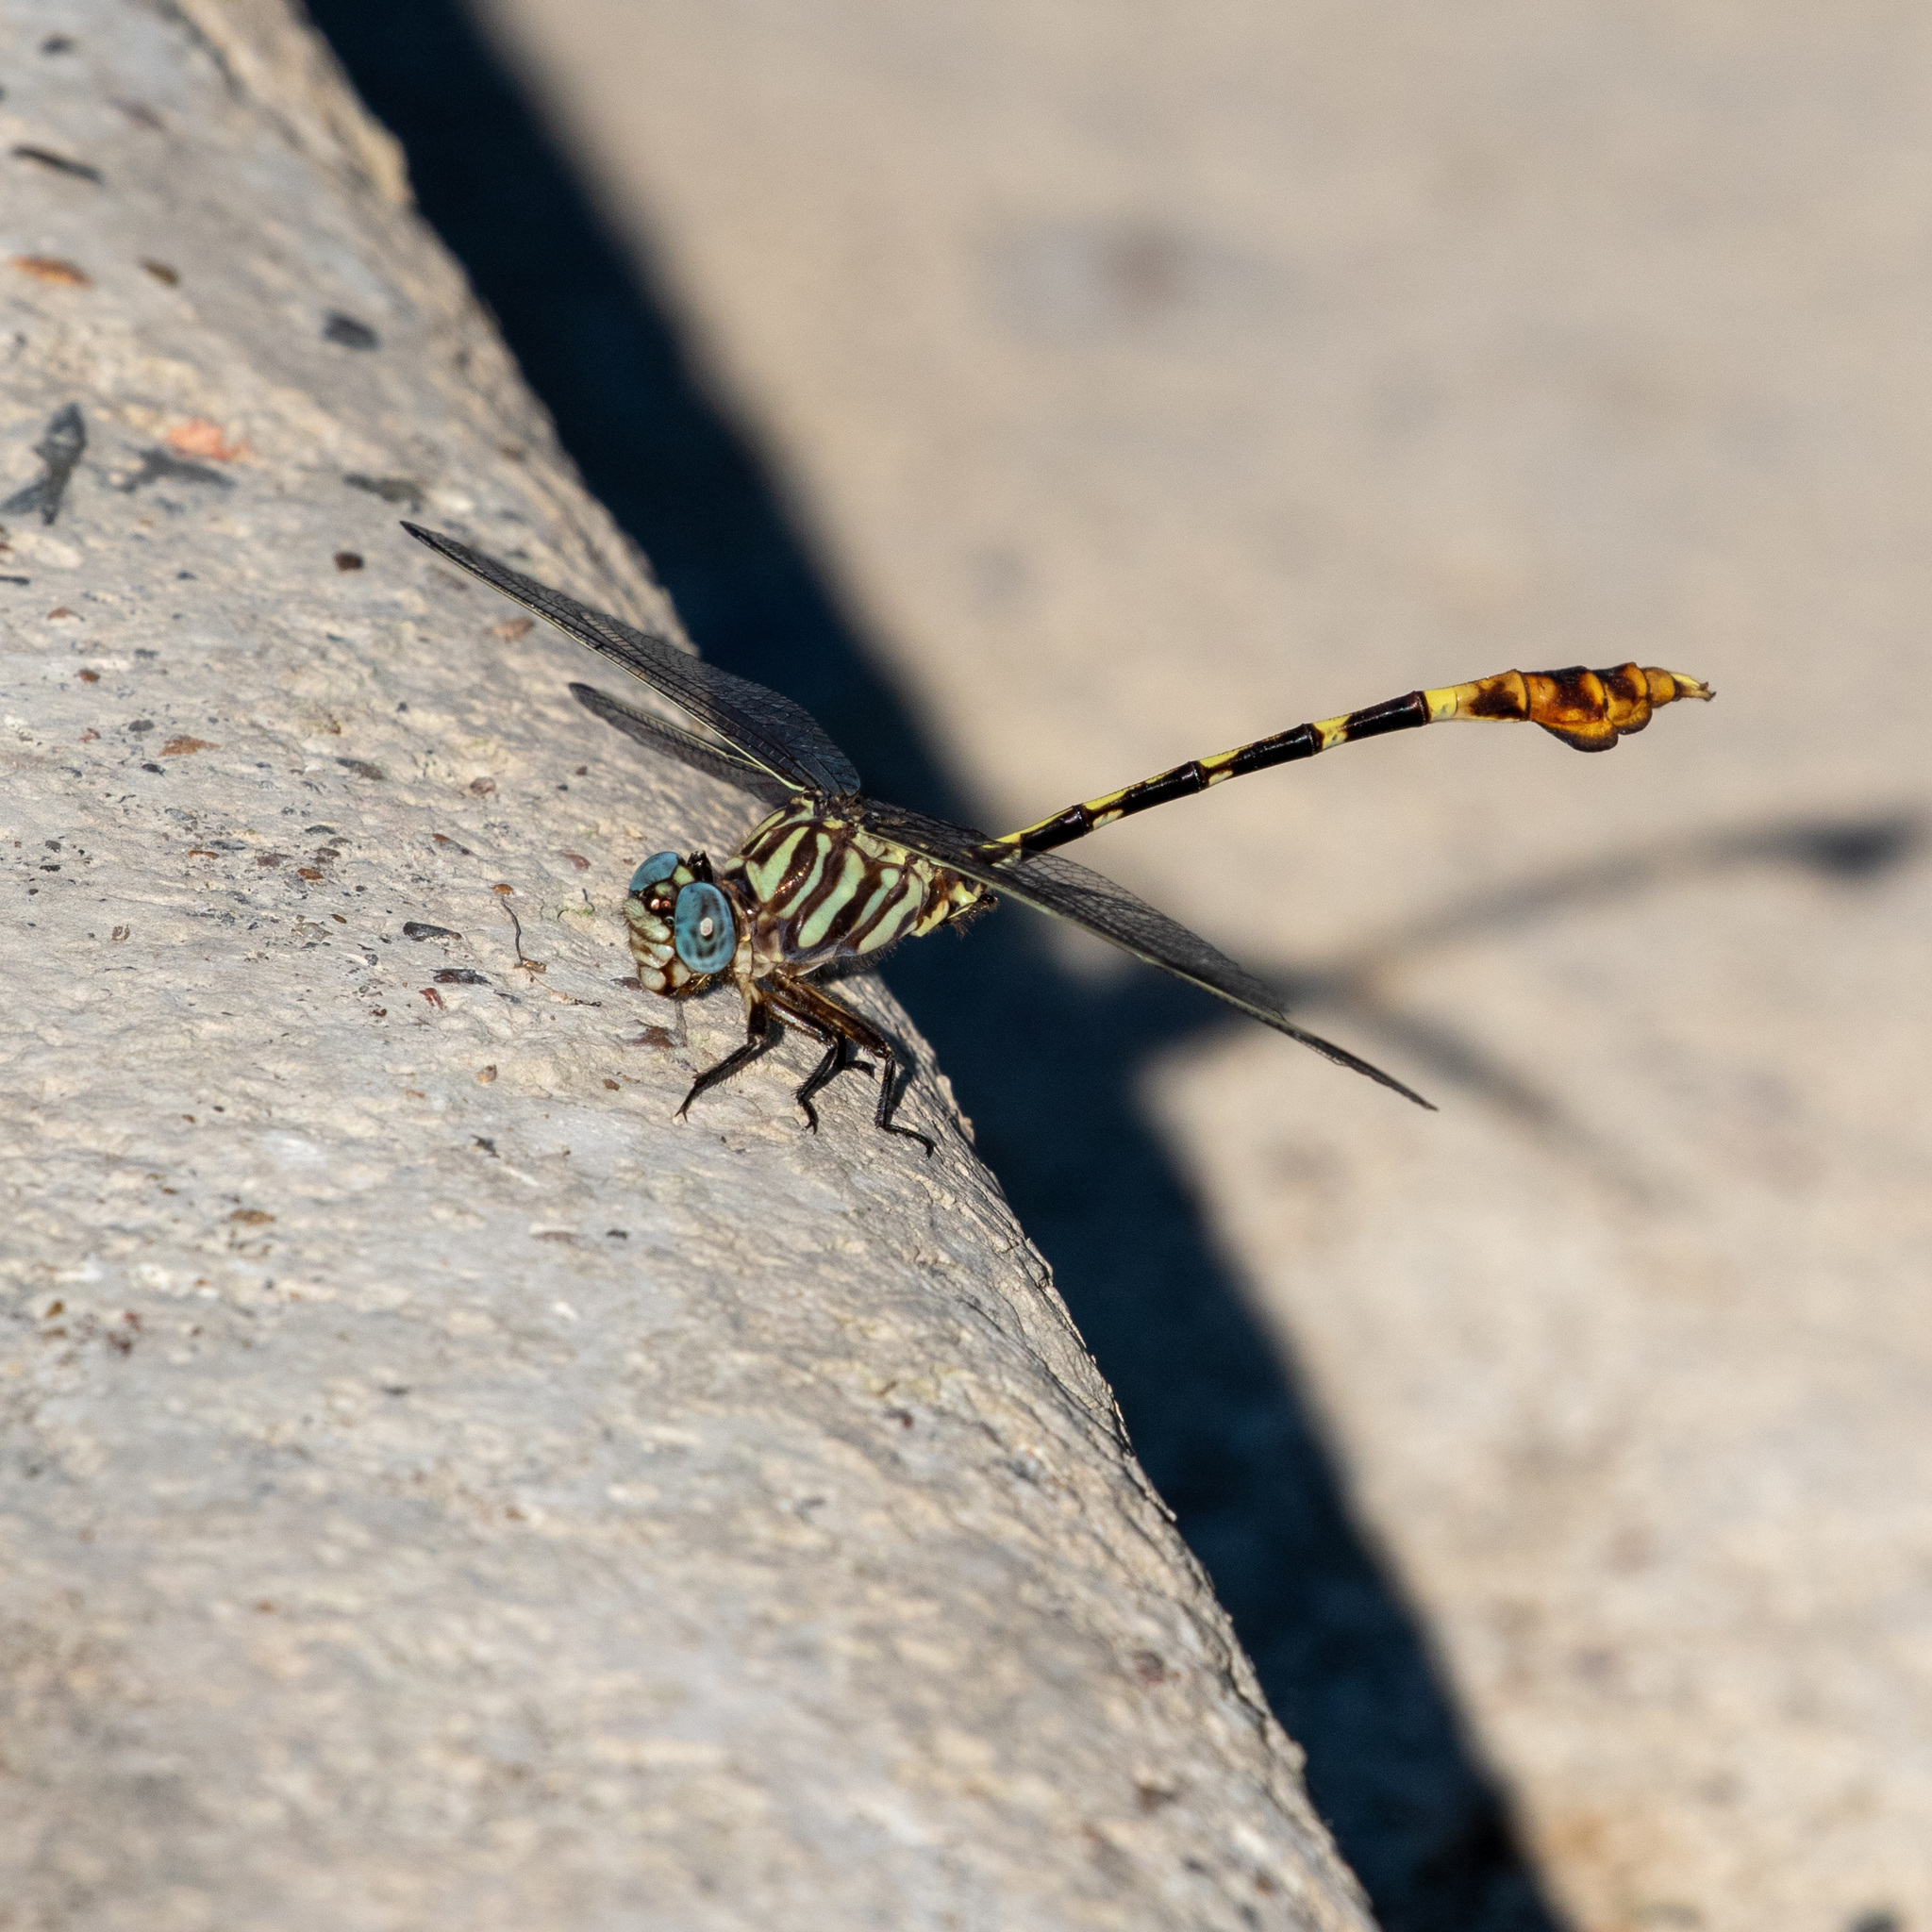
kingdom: Animalia
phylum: Arthropoda
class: Insecta
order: Odonata
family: Gomphidae
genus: Phyllogomphoides
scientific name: Phyllogomphoides albrighti
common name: Five-striped leaftail
